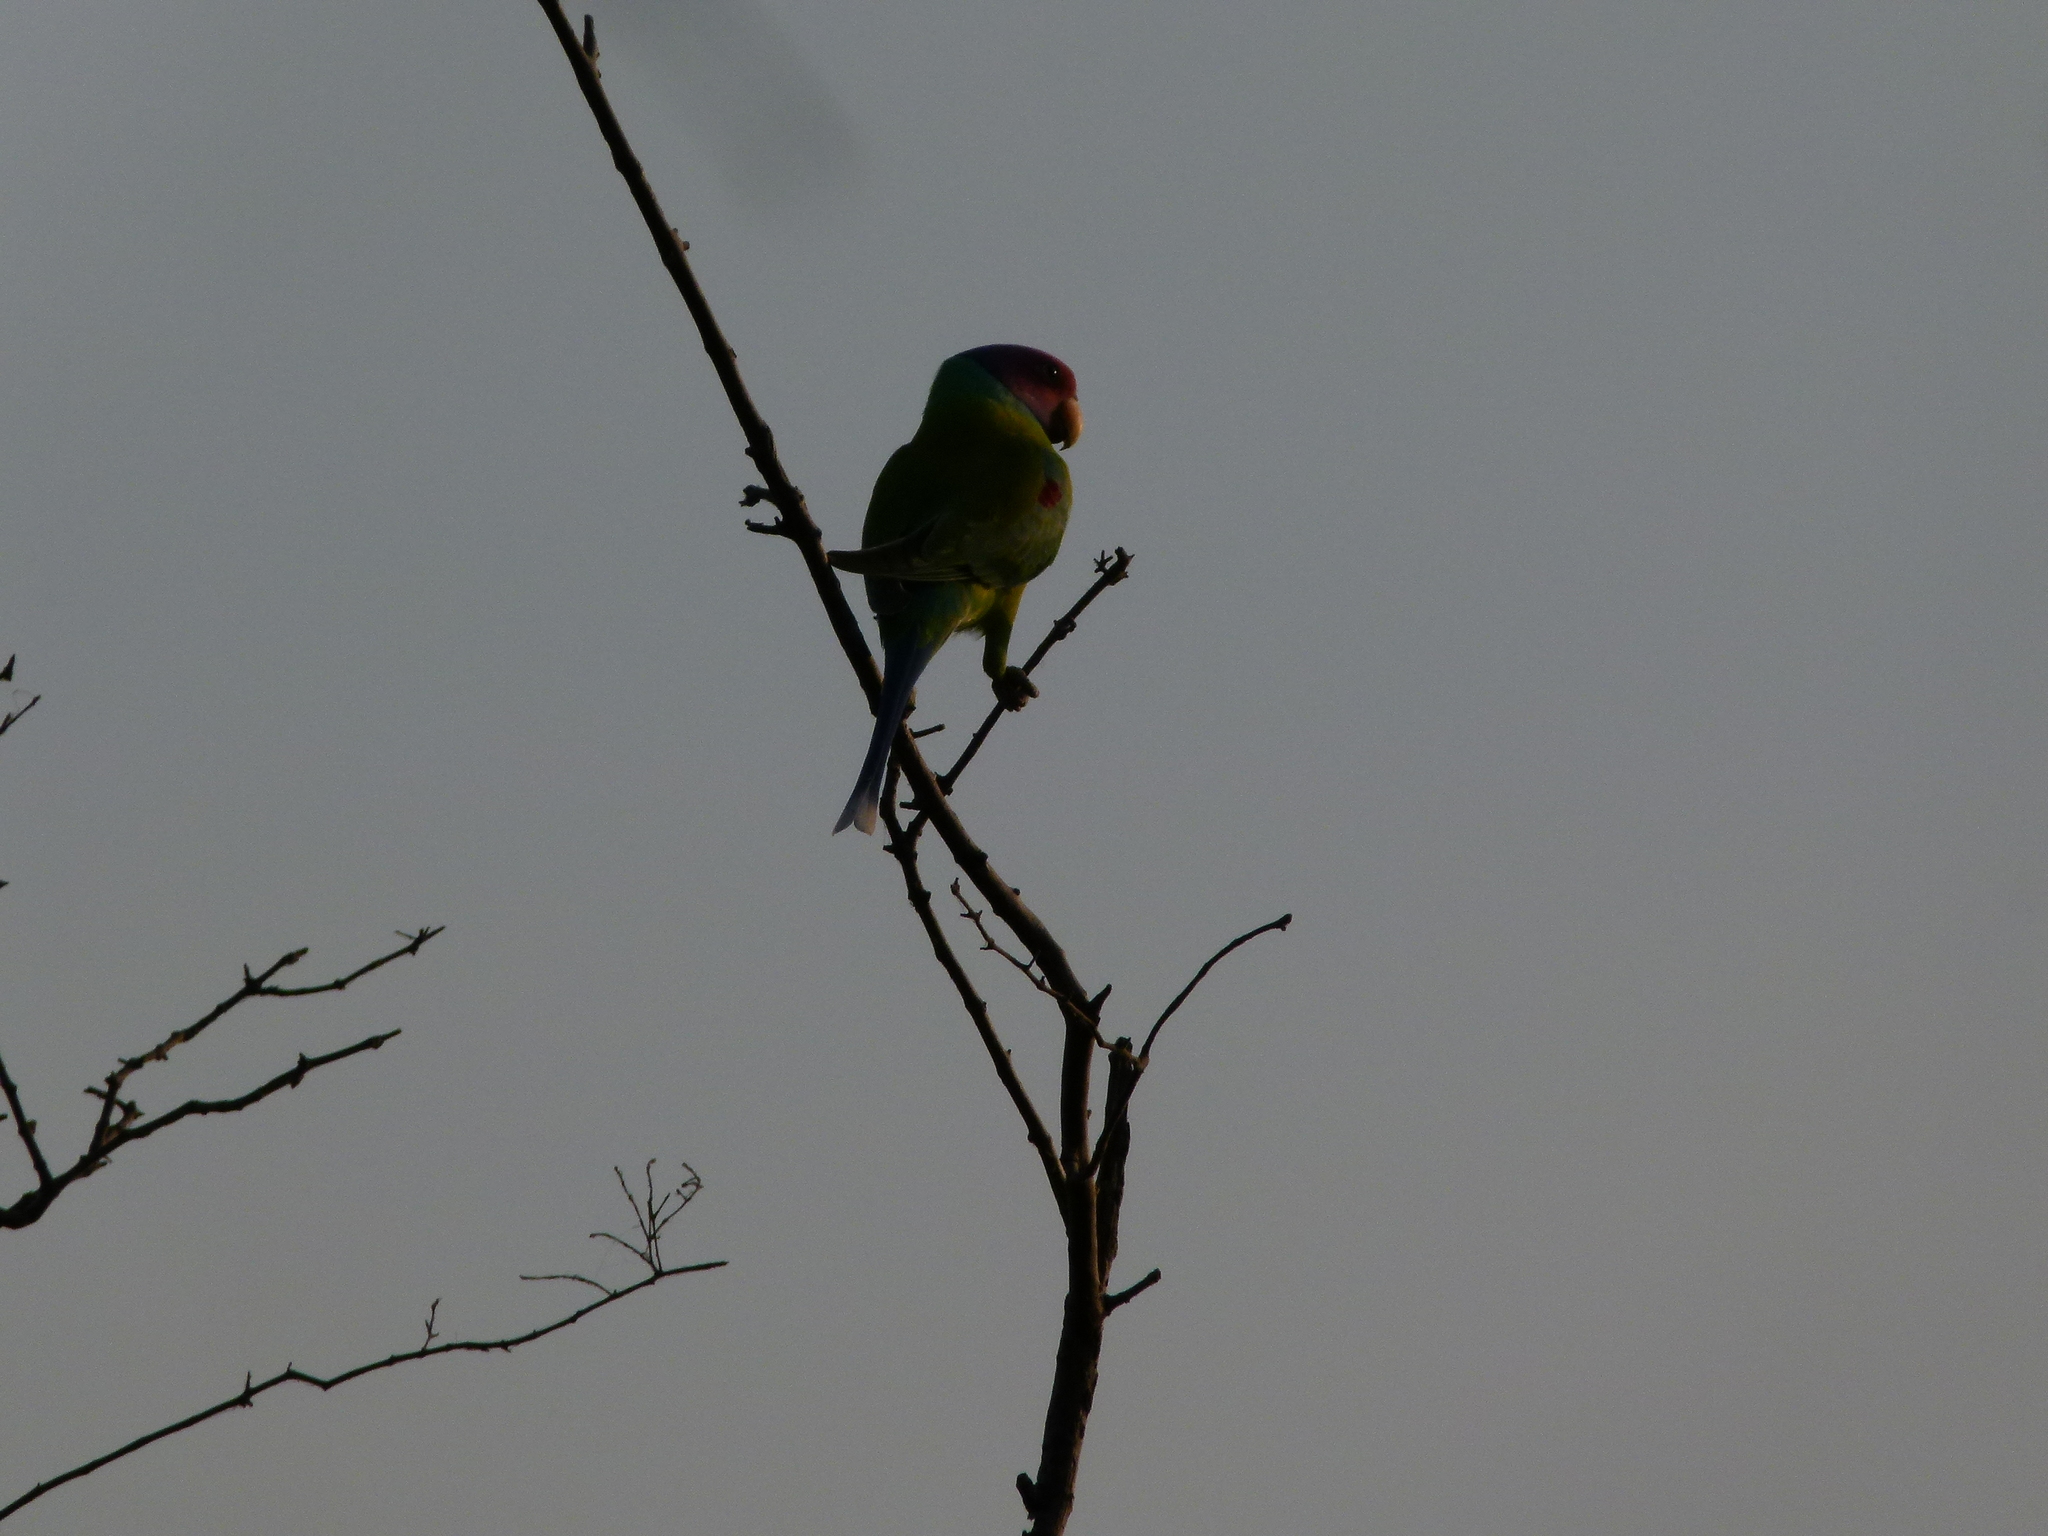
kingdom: Animalia
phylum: Chordata
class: Aves
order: Psittaciformes
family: Psittacidae
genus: Psittacula
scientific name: Psittacula cyanocephala
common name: Plum-headed parakeet
